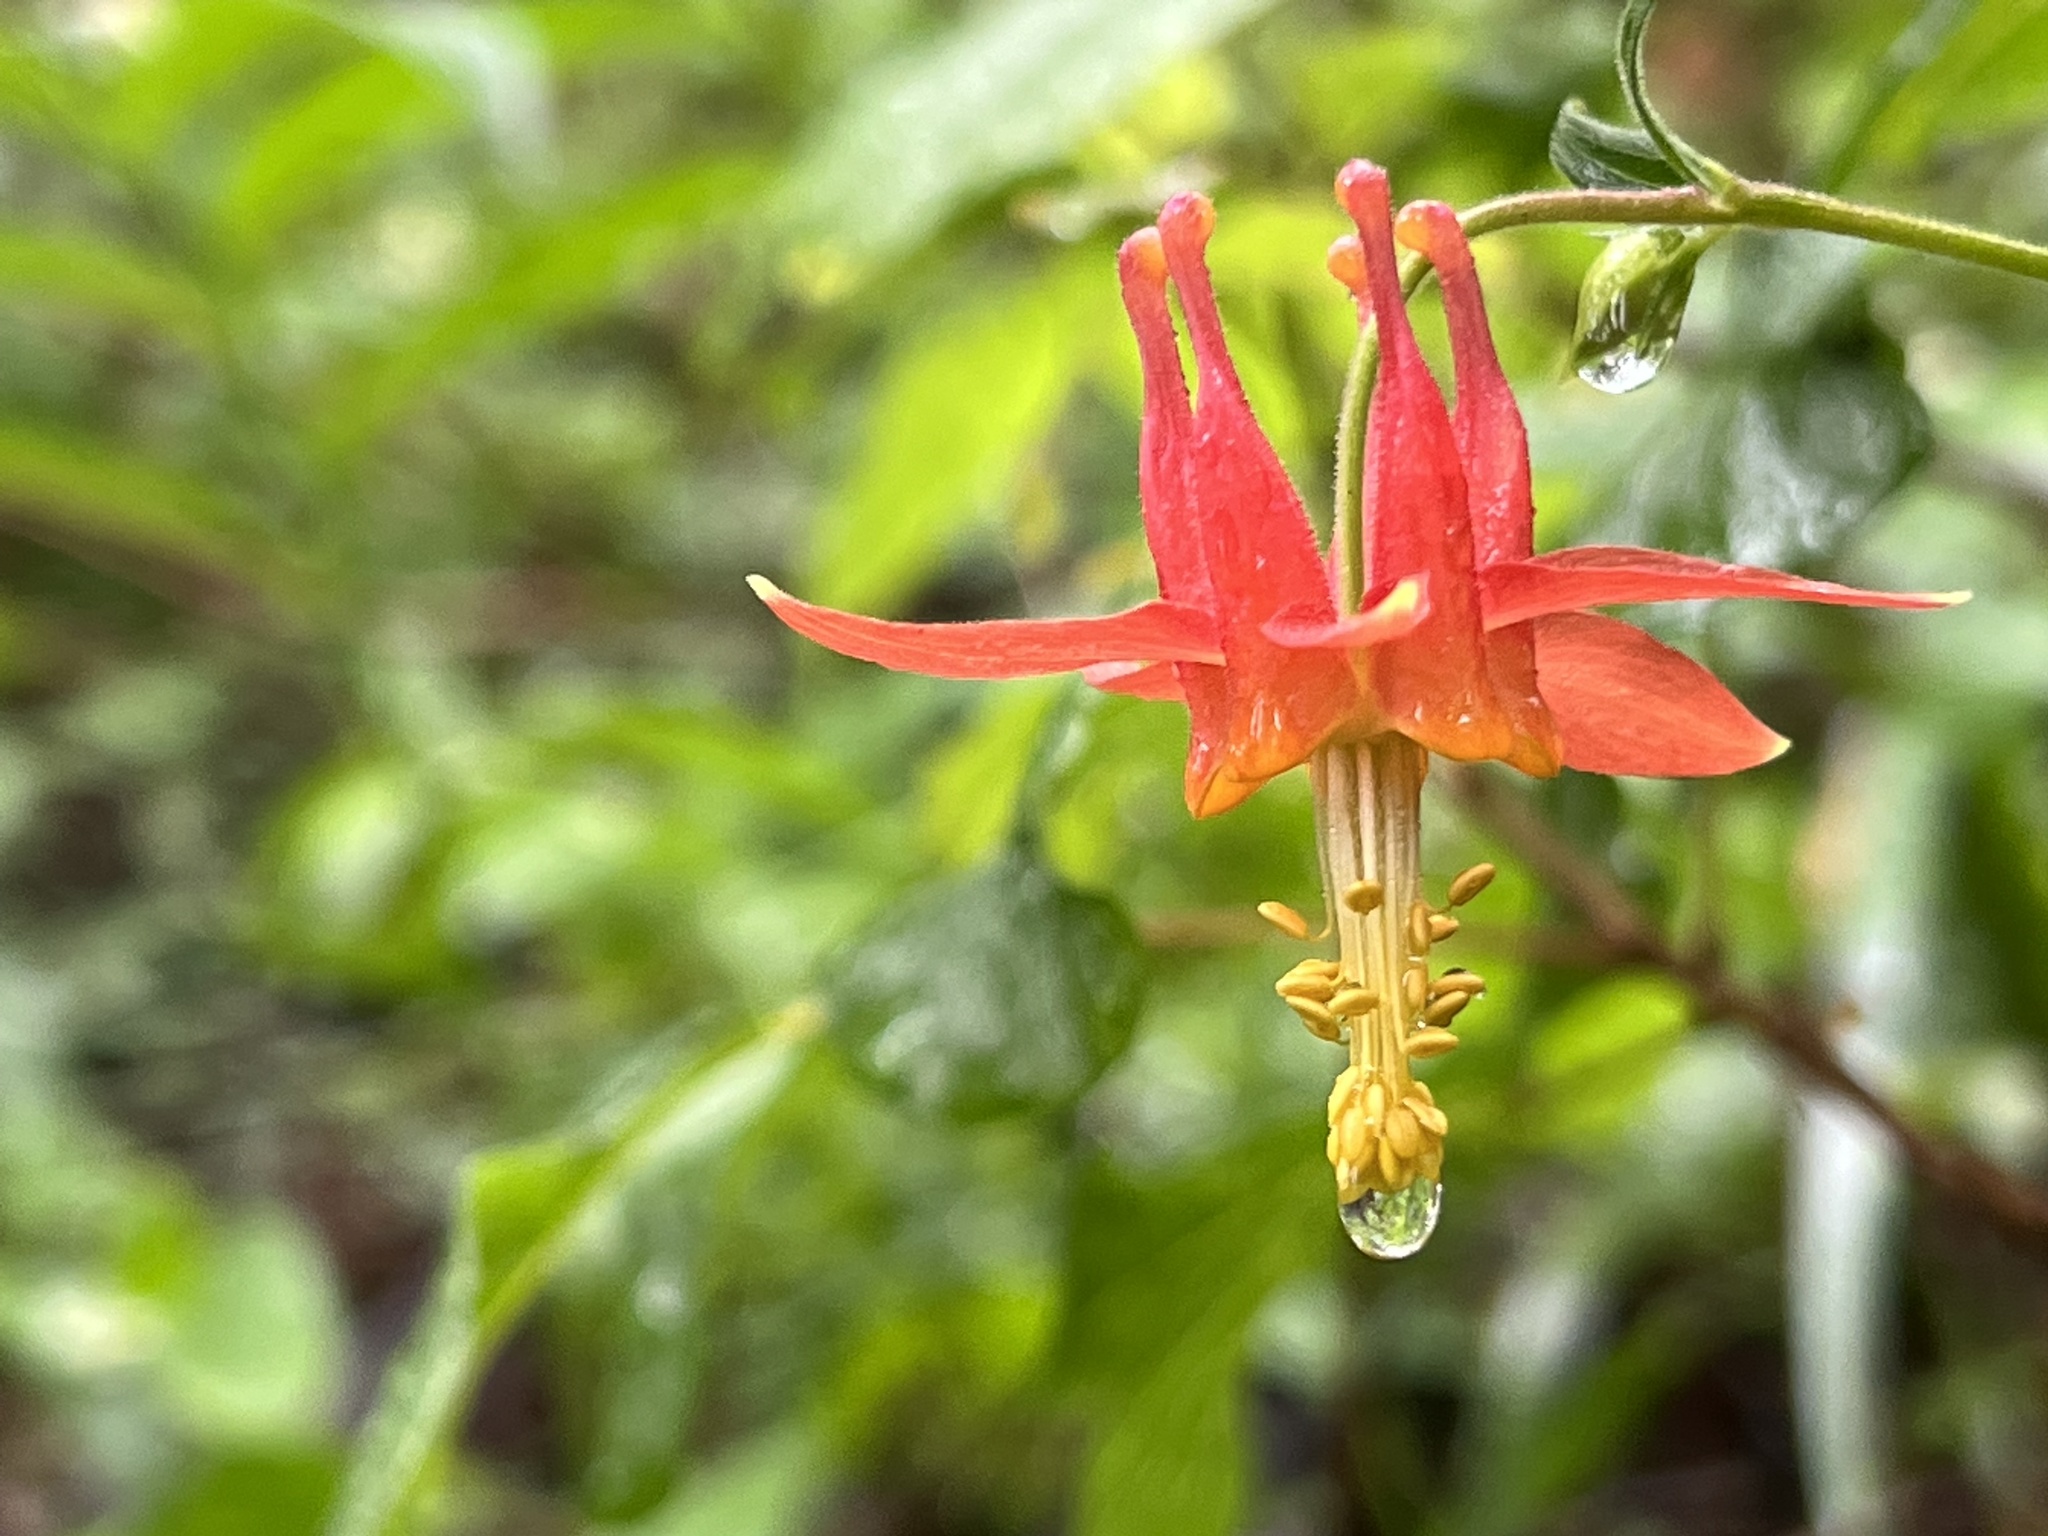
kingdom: Plantae
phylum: Tracheophyta
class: Magnoliopsida
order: Ranunculales
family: Ranunculaceae
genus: Aquilegia
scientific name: Aquilegia formosa
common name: Sitka columbine
